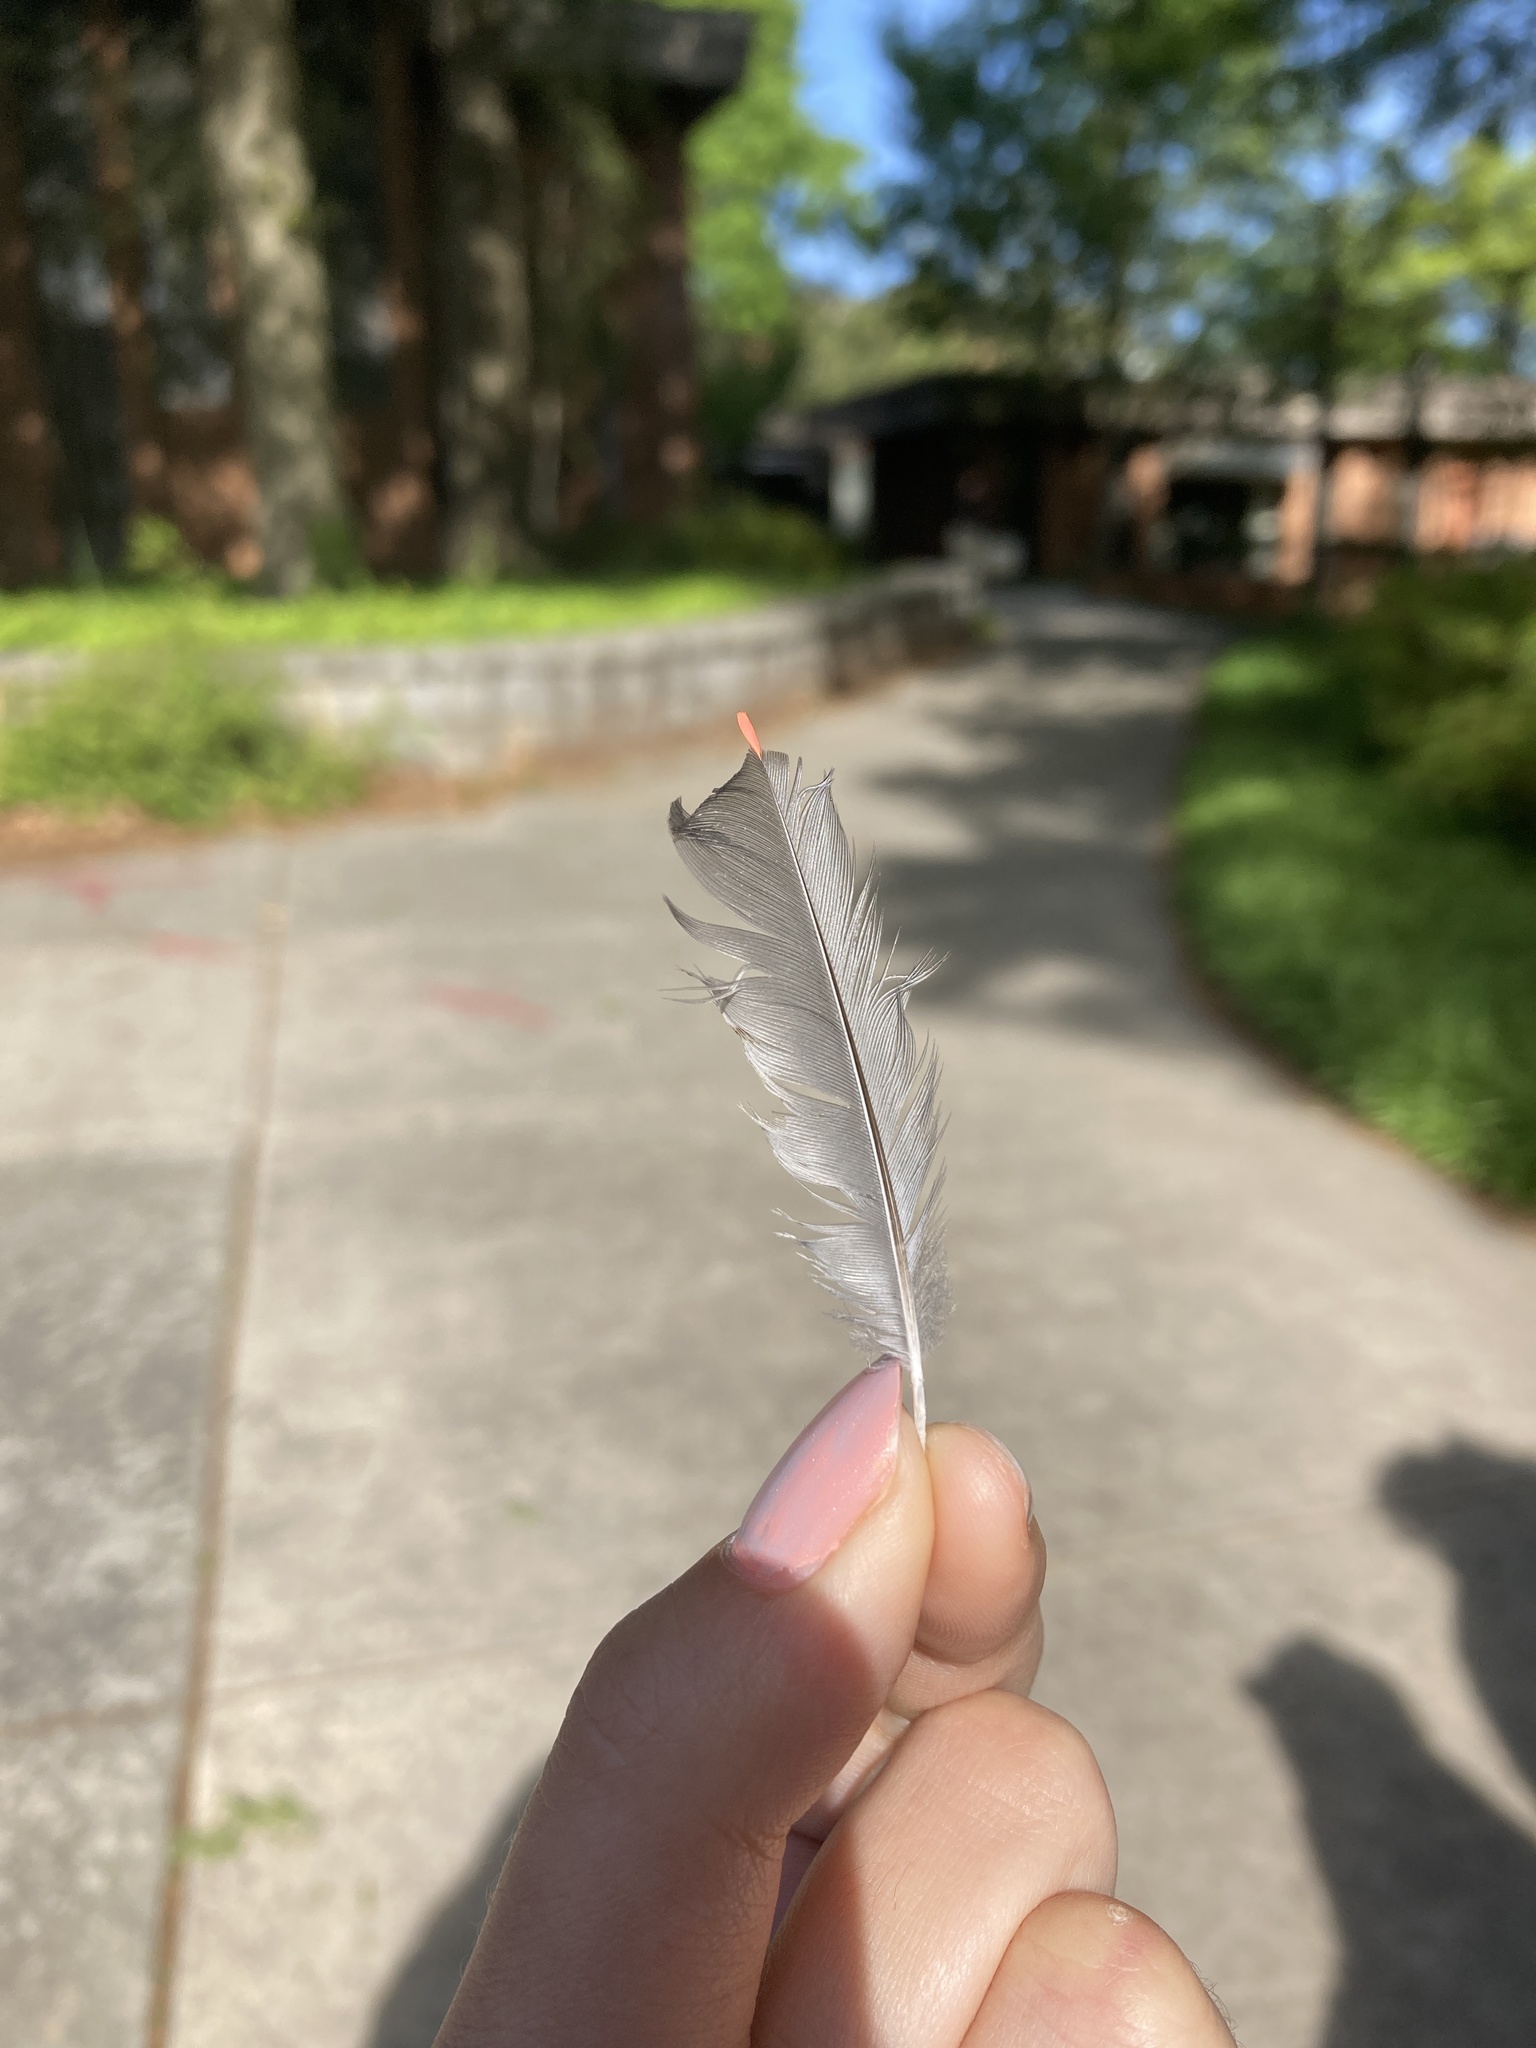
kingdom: Animalia
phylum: Chordata
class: Aves
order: Passeriformes
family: Bombycillidae
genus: Bombycilla
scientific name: Bombycilla cedrorum
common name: Cedar waxwing
